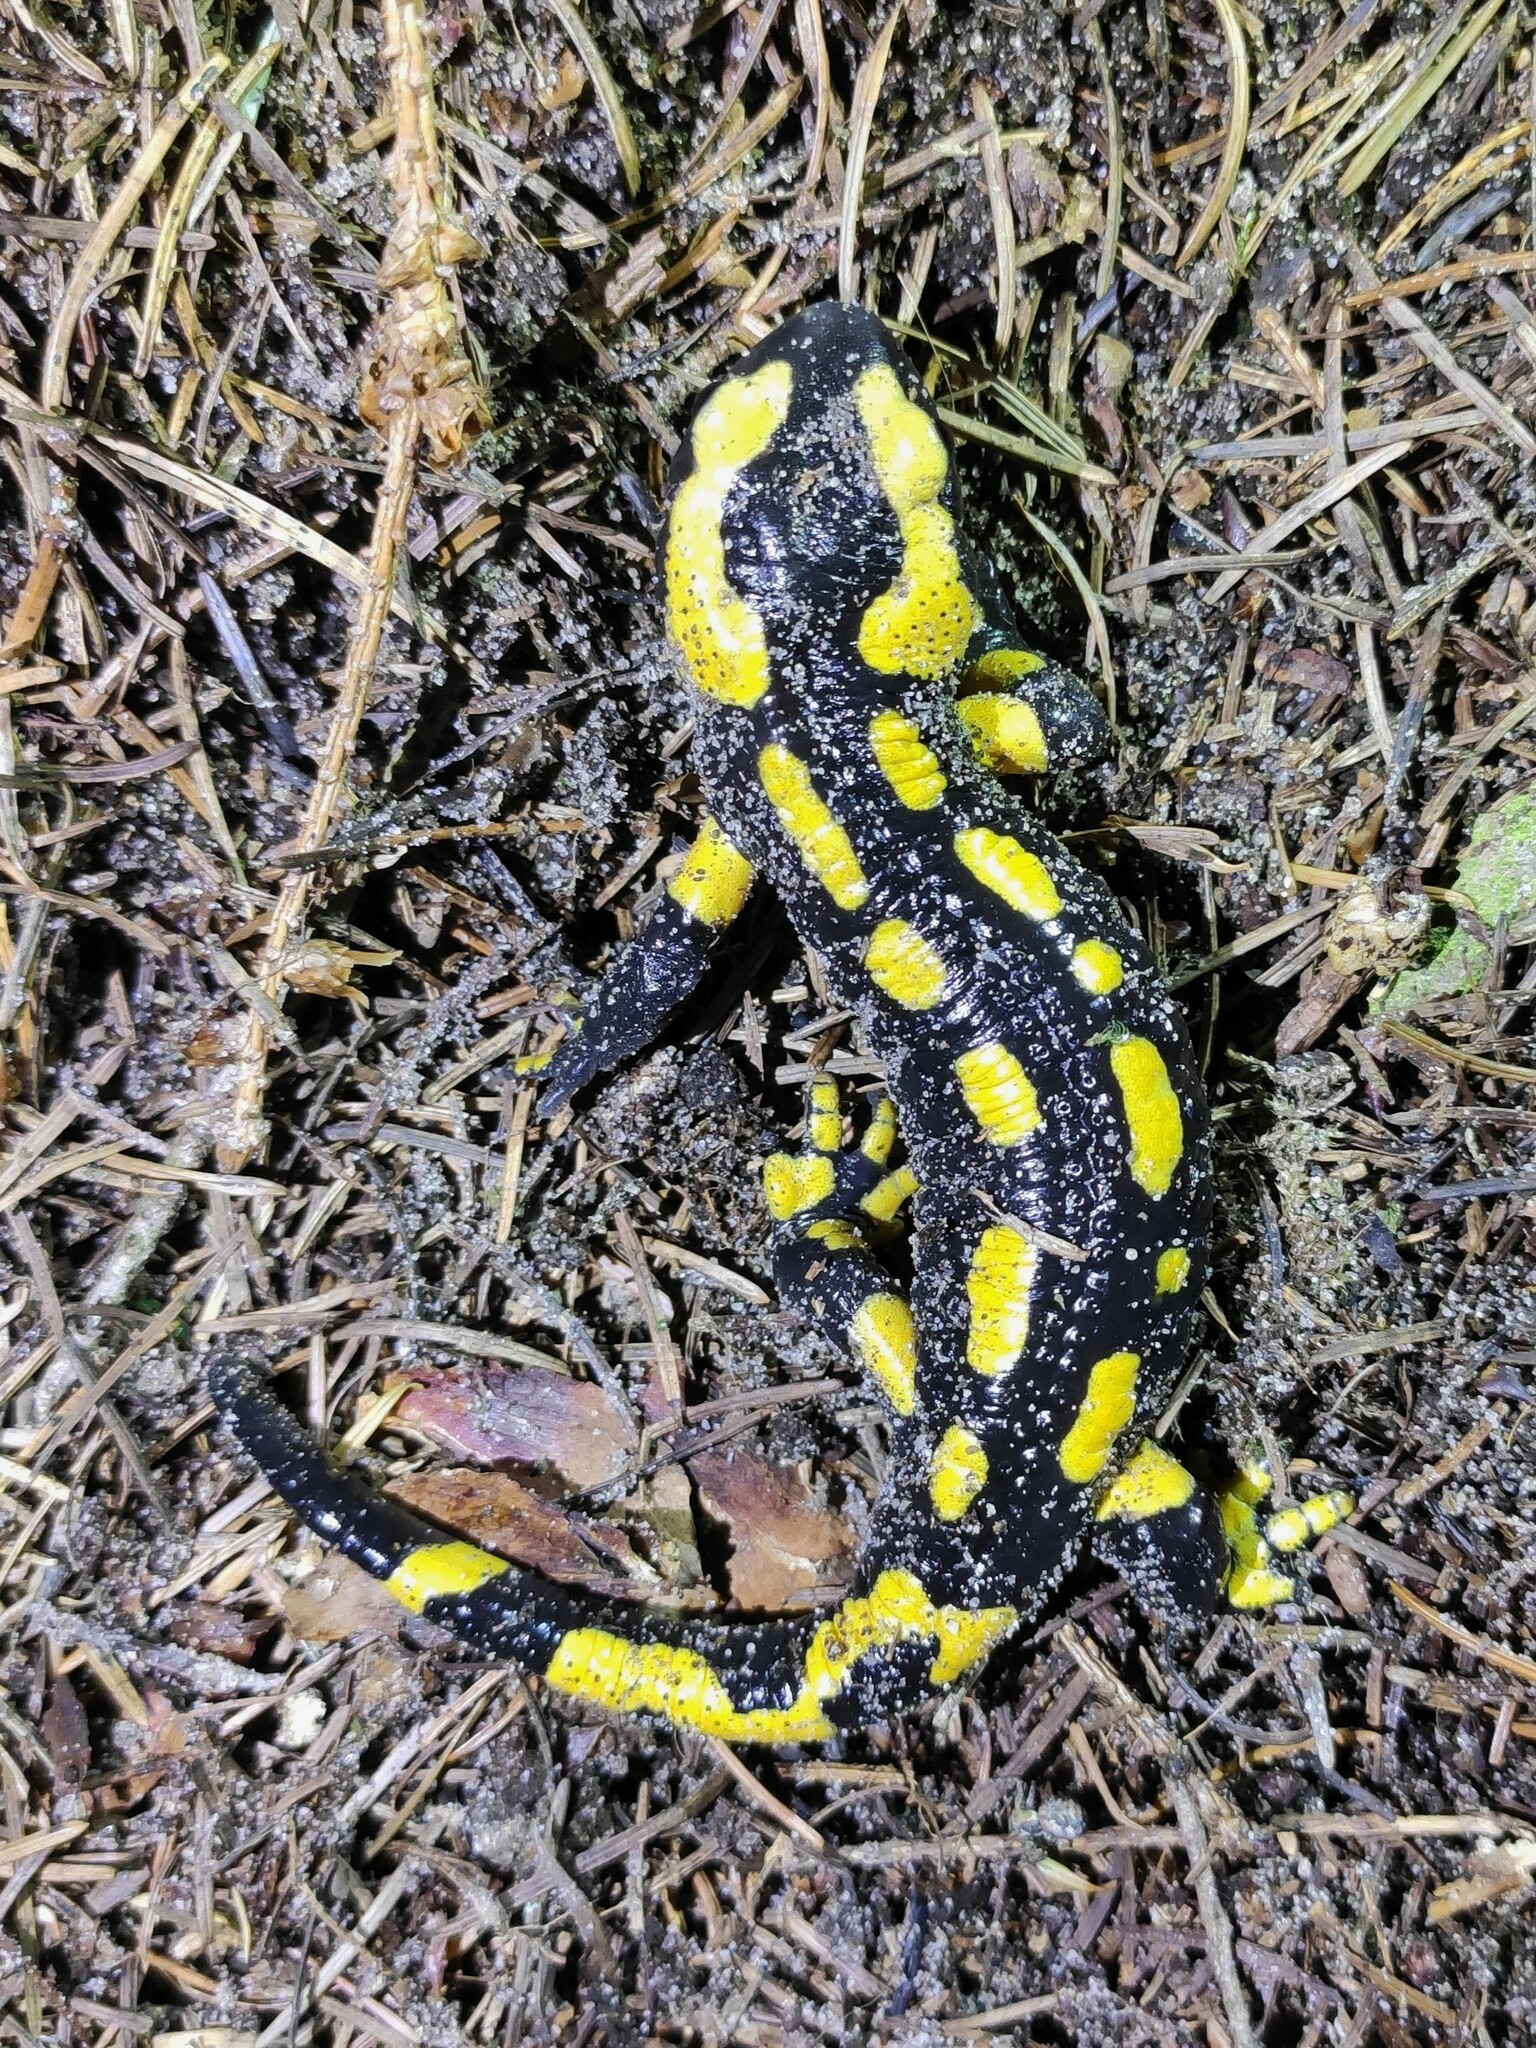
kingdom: Animalia
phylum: Chordata
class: Amphibia
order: Caudata
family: Salamandridae
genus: Salamandra
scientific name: Salamandra salamandra
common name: Fire salamander
